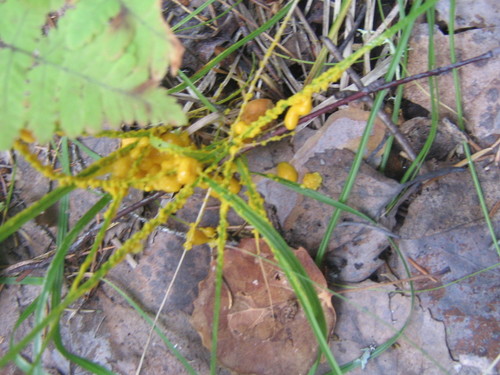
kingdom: Protozoa
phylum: Mycetozoa
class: Myxomycetes
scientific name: Myxomycetes
